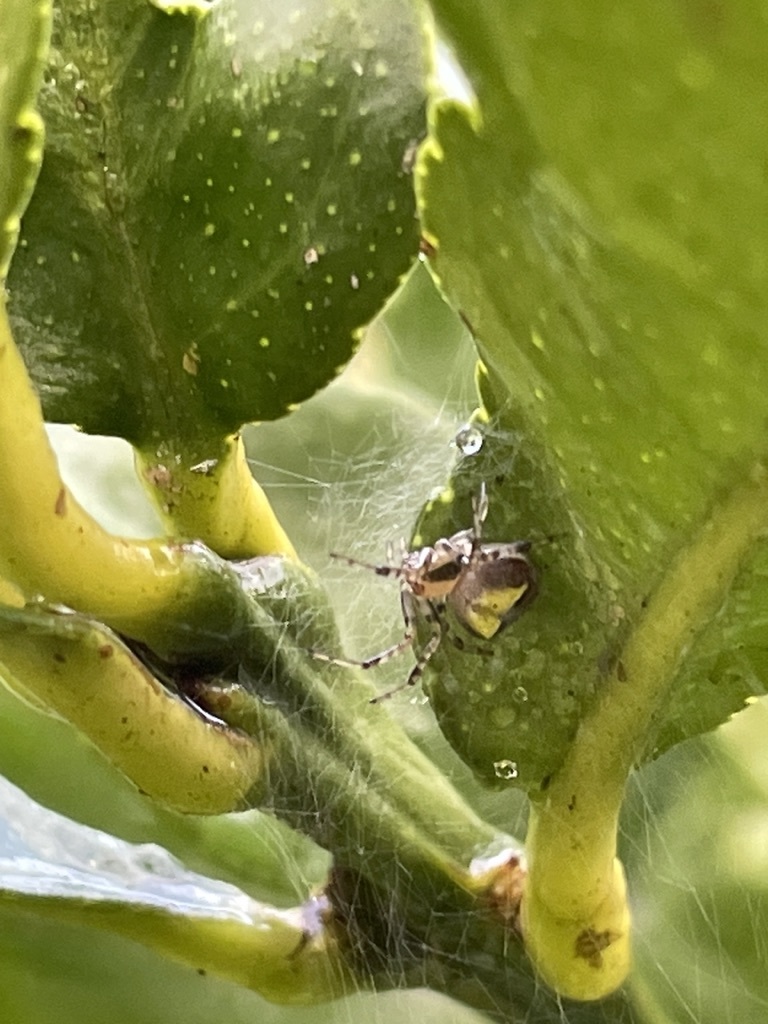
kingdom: Animalia
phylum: Arthropoda
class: Arachnida
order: Araneae
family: Araneidae
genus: Araneus
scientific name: Araneus albotriangulus
